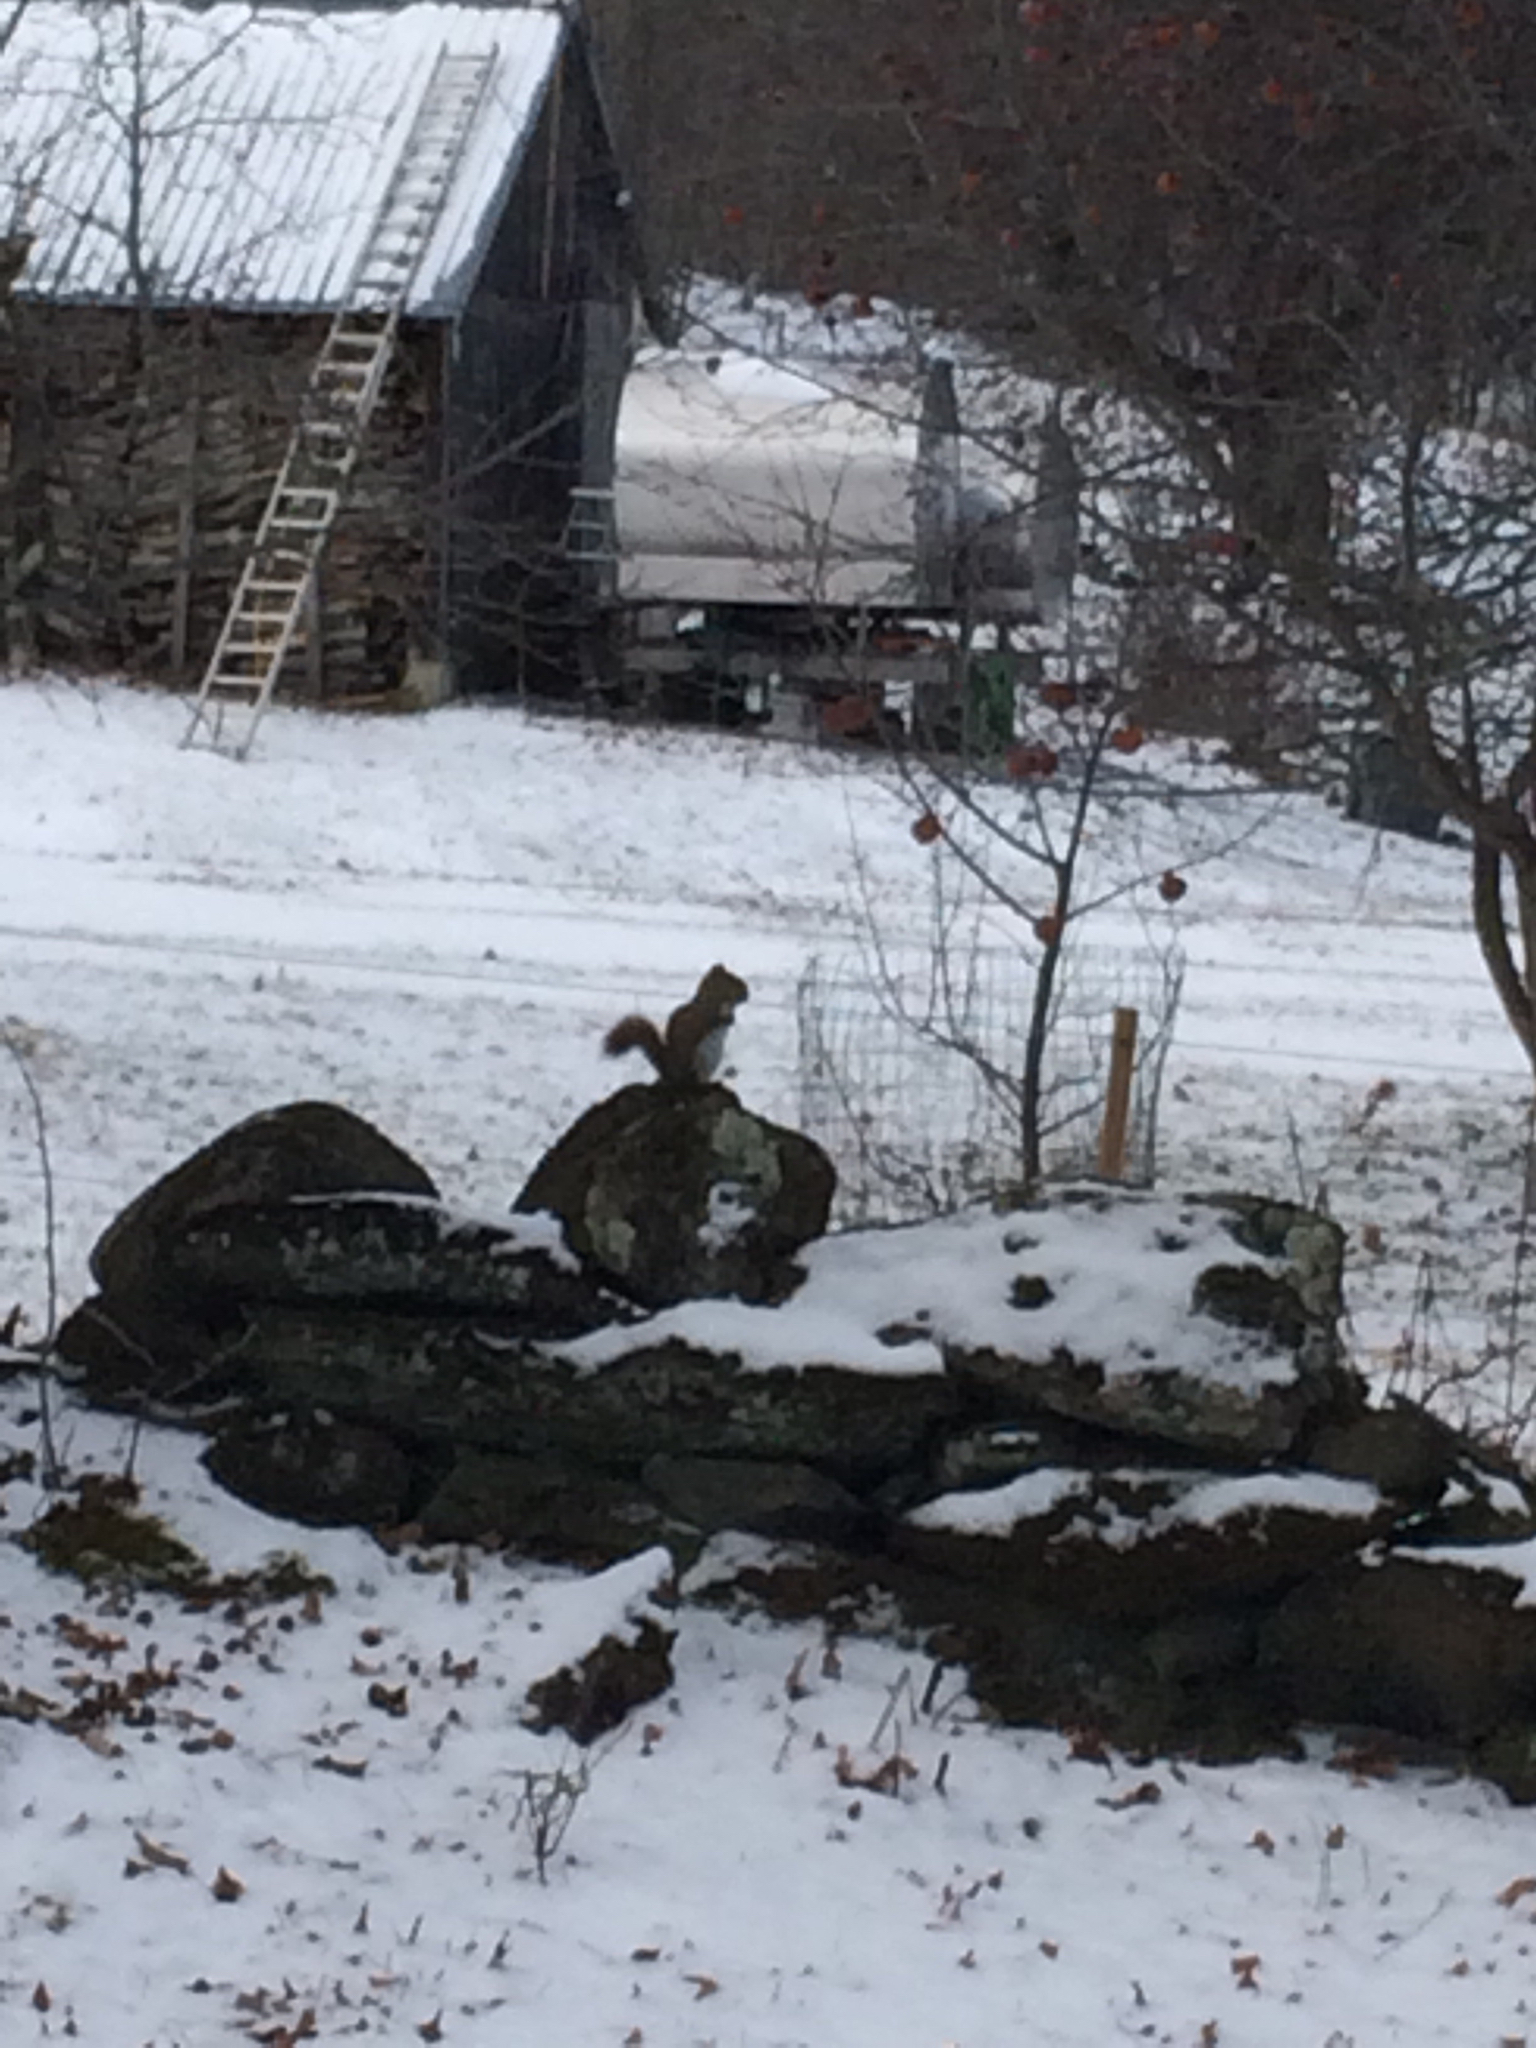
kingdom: Animalia
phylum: Chordata
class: Mammalia
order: Rodentia
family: Sciuridae
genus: Tamiasciurus
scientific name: Tamiasciurus hudsonicus
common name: Red squirrel
